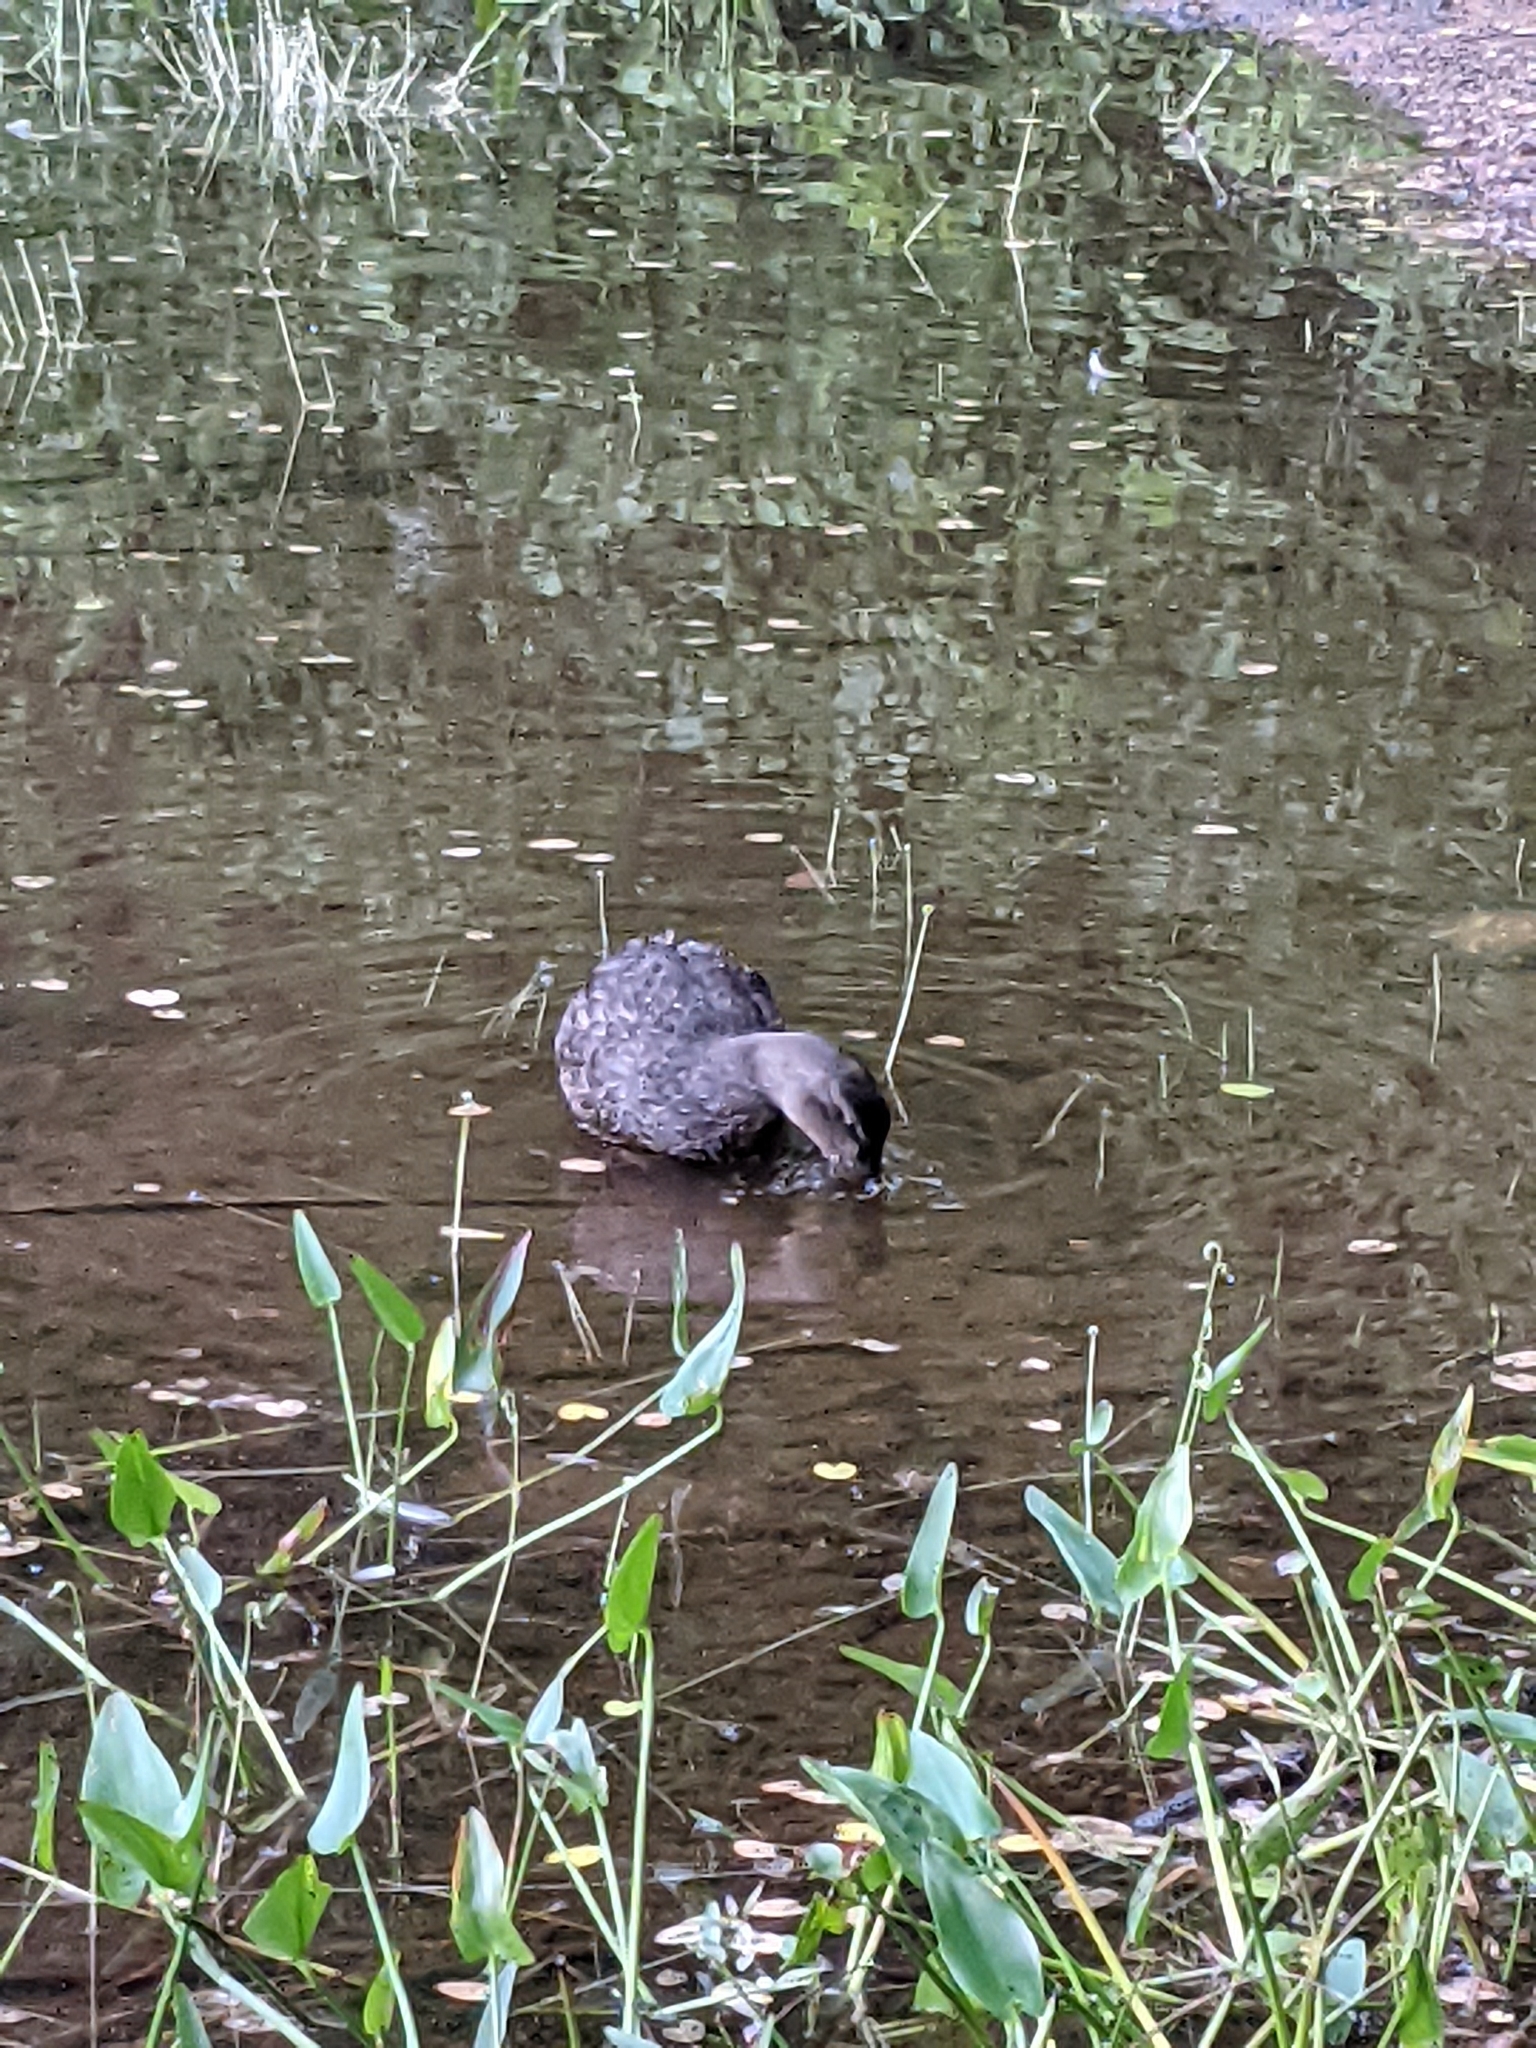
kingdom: Animalia
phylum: Chordata
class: Aves
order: Anseriformes
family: Anatidae
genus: Anas
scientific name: Anas rubripes
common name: American black duck
